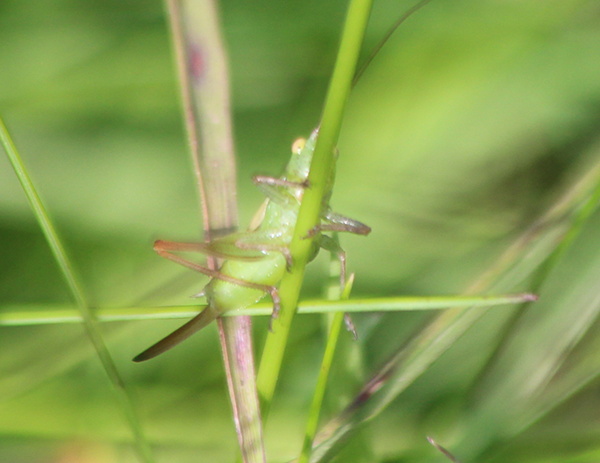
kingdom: Animalia
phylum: Arthropoda
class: Insecta
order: Orthoptera
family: Tettigoniidae
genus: Conocephalus
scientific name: Conocephalus fasciatus
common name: Slender meadow katydid
